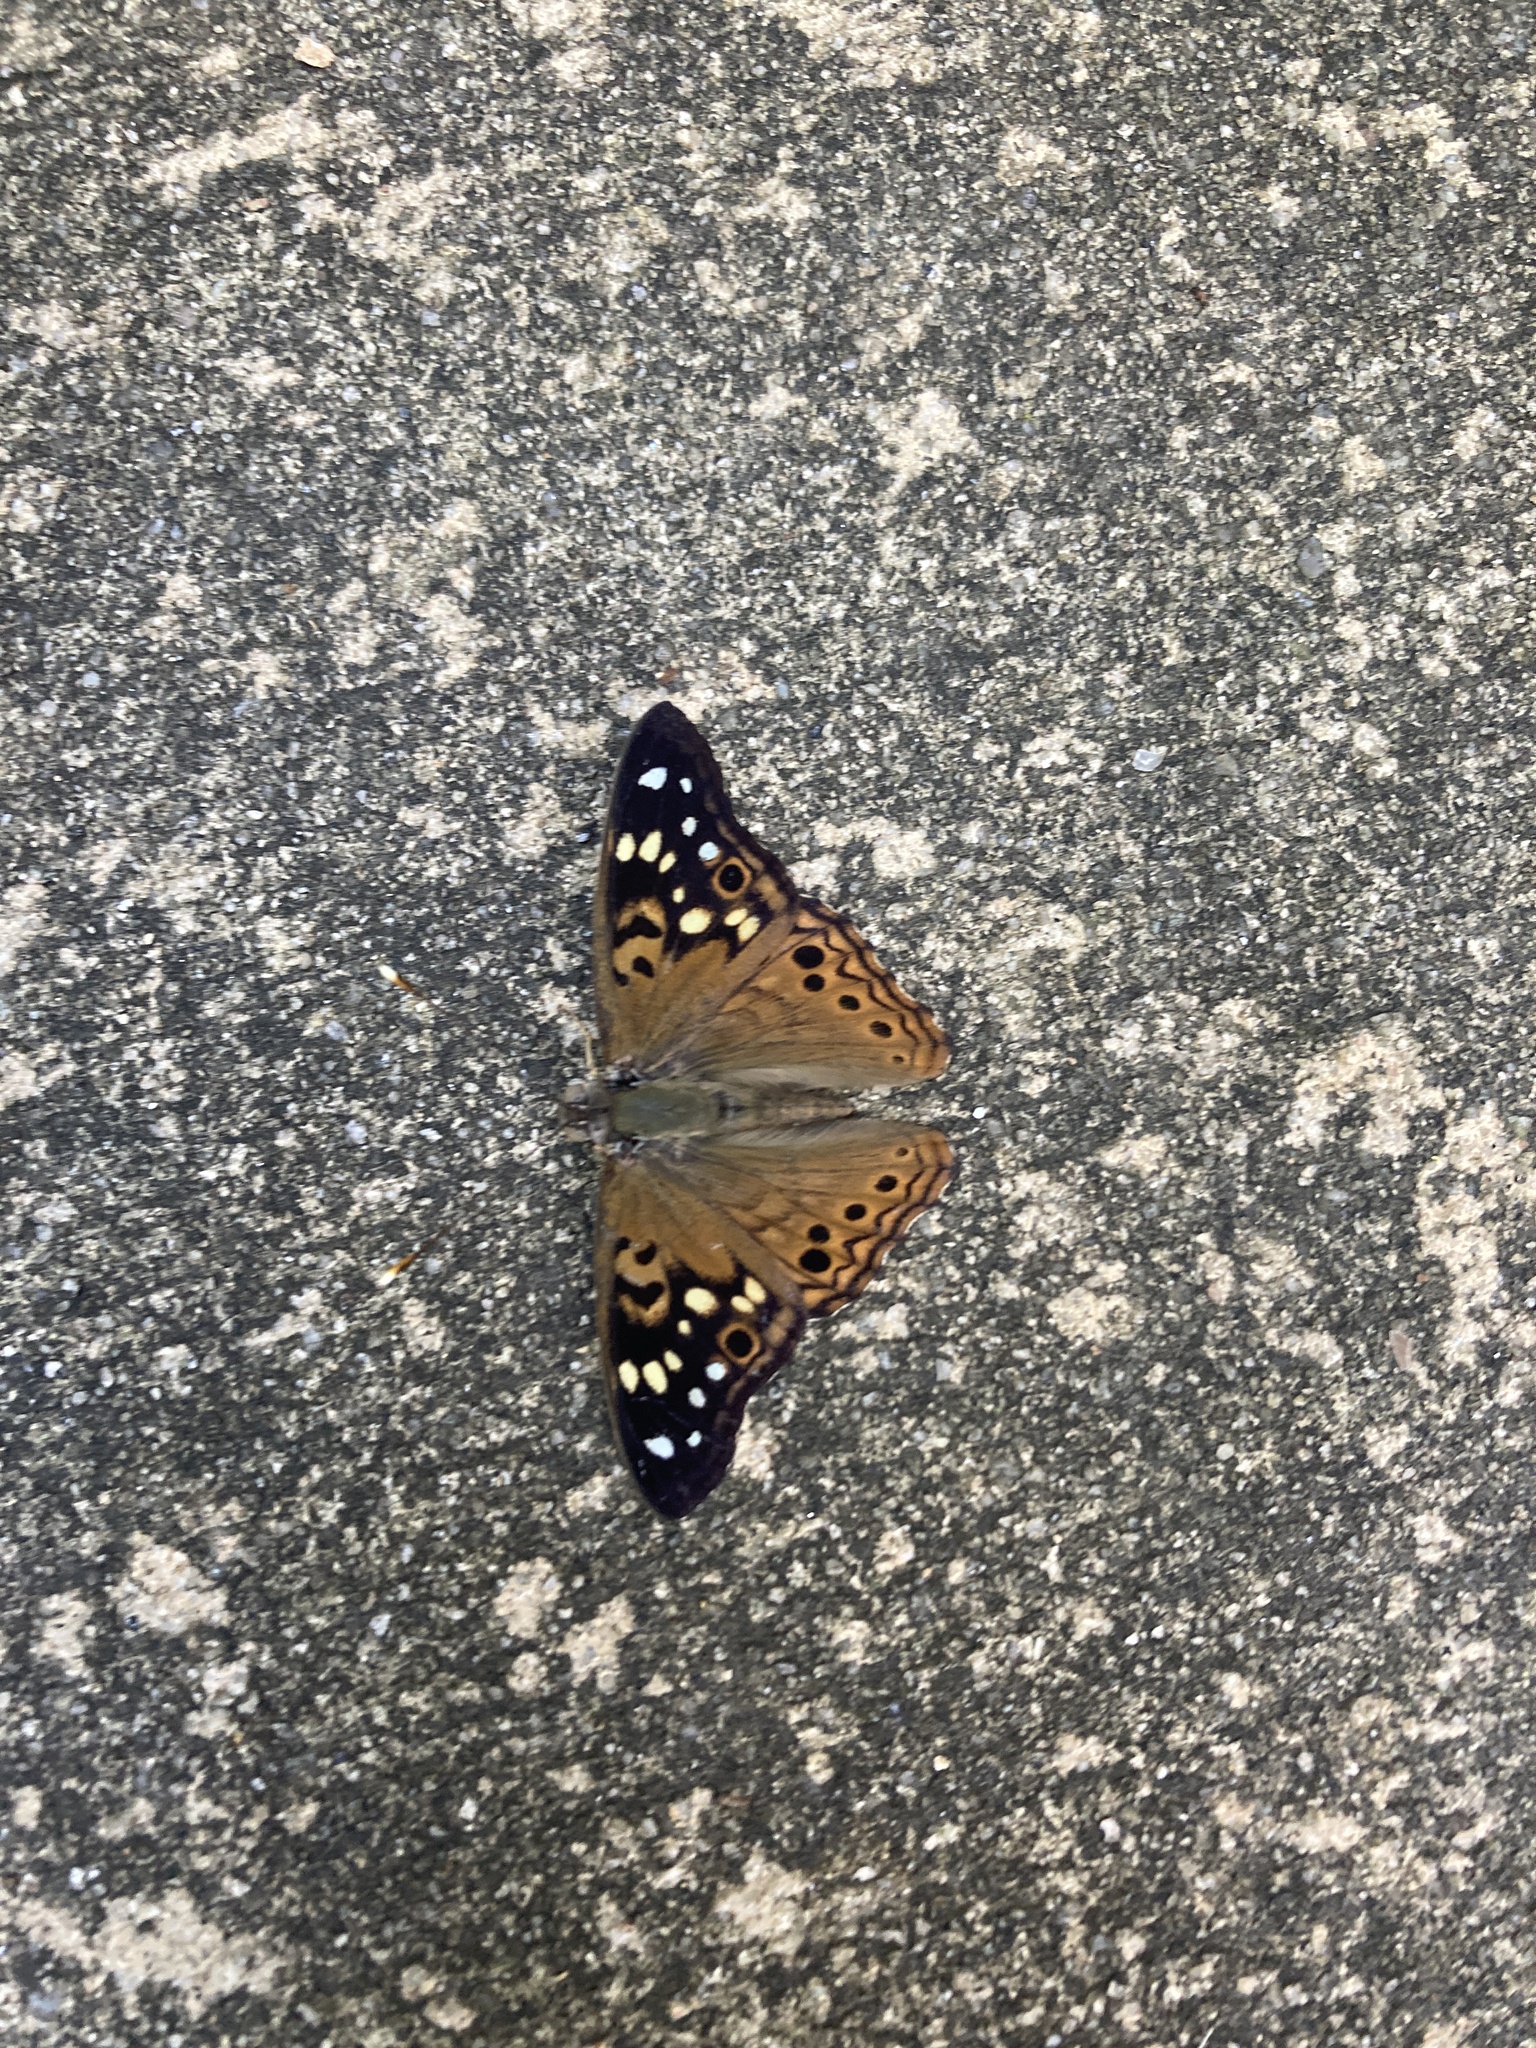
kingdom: Animalia
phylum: Arthropoda
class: Insecta
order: Lepidoptera
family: Nymphalidae
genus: Asterocampa
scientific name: Asterocampa celtis
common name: Hackberry emperor
